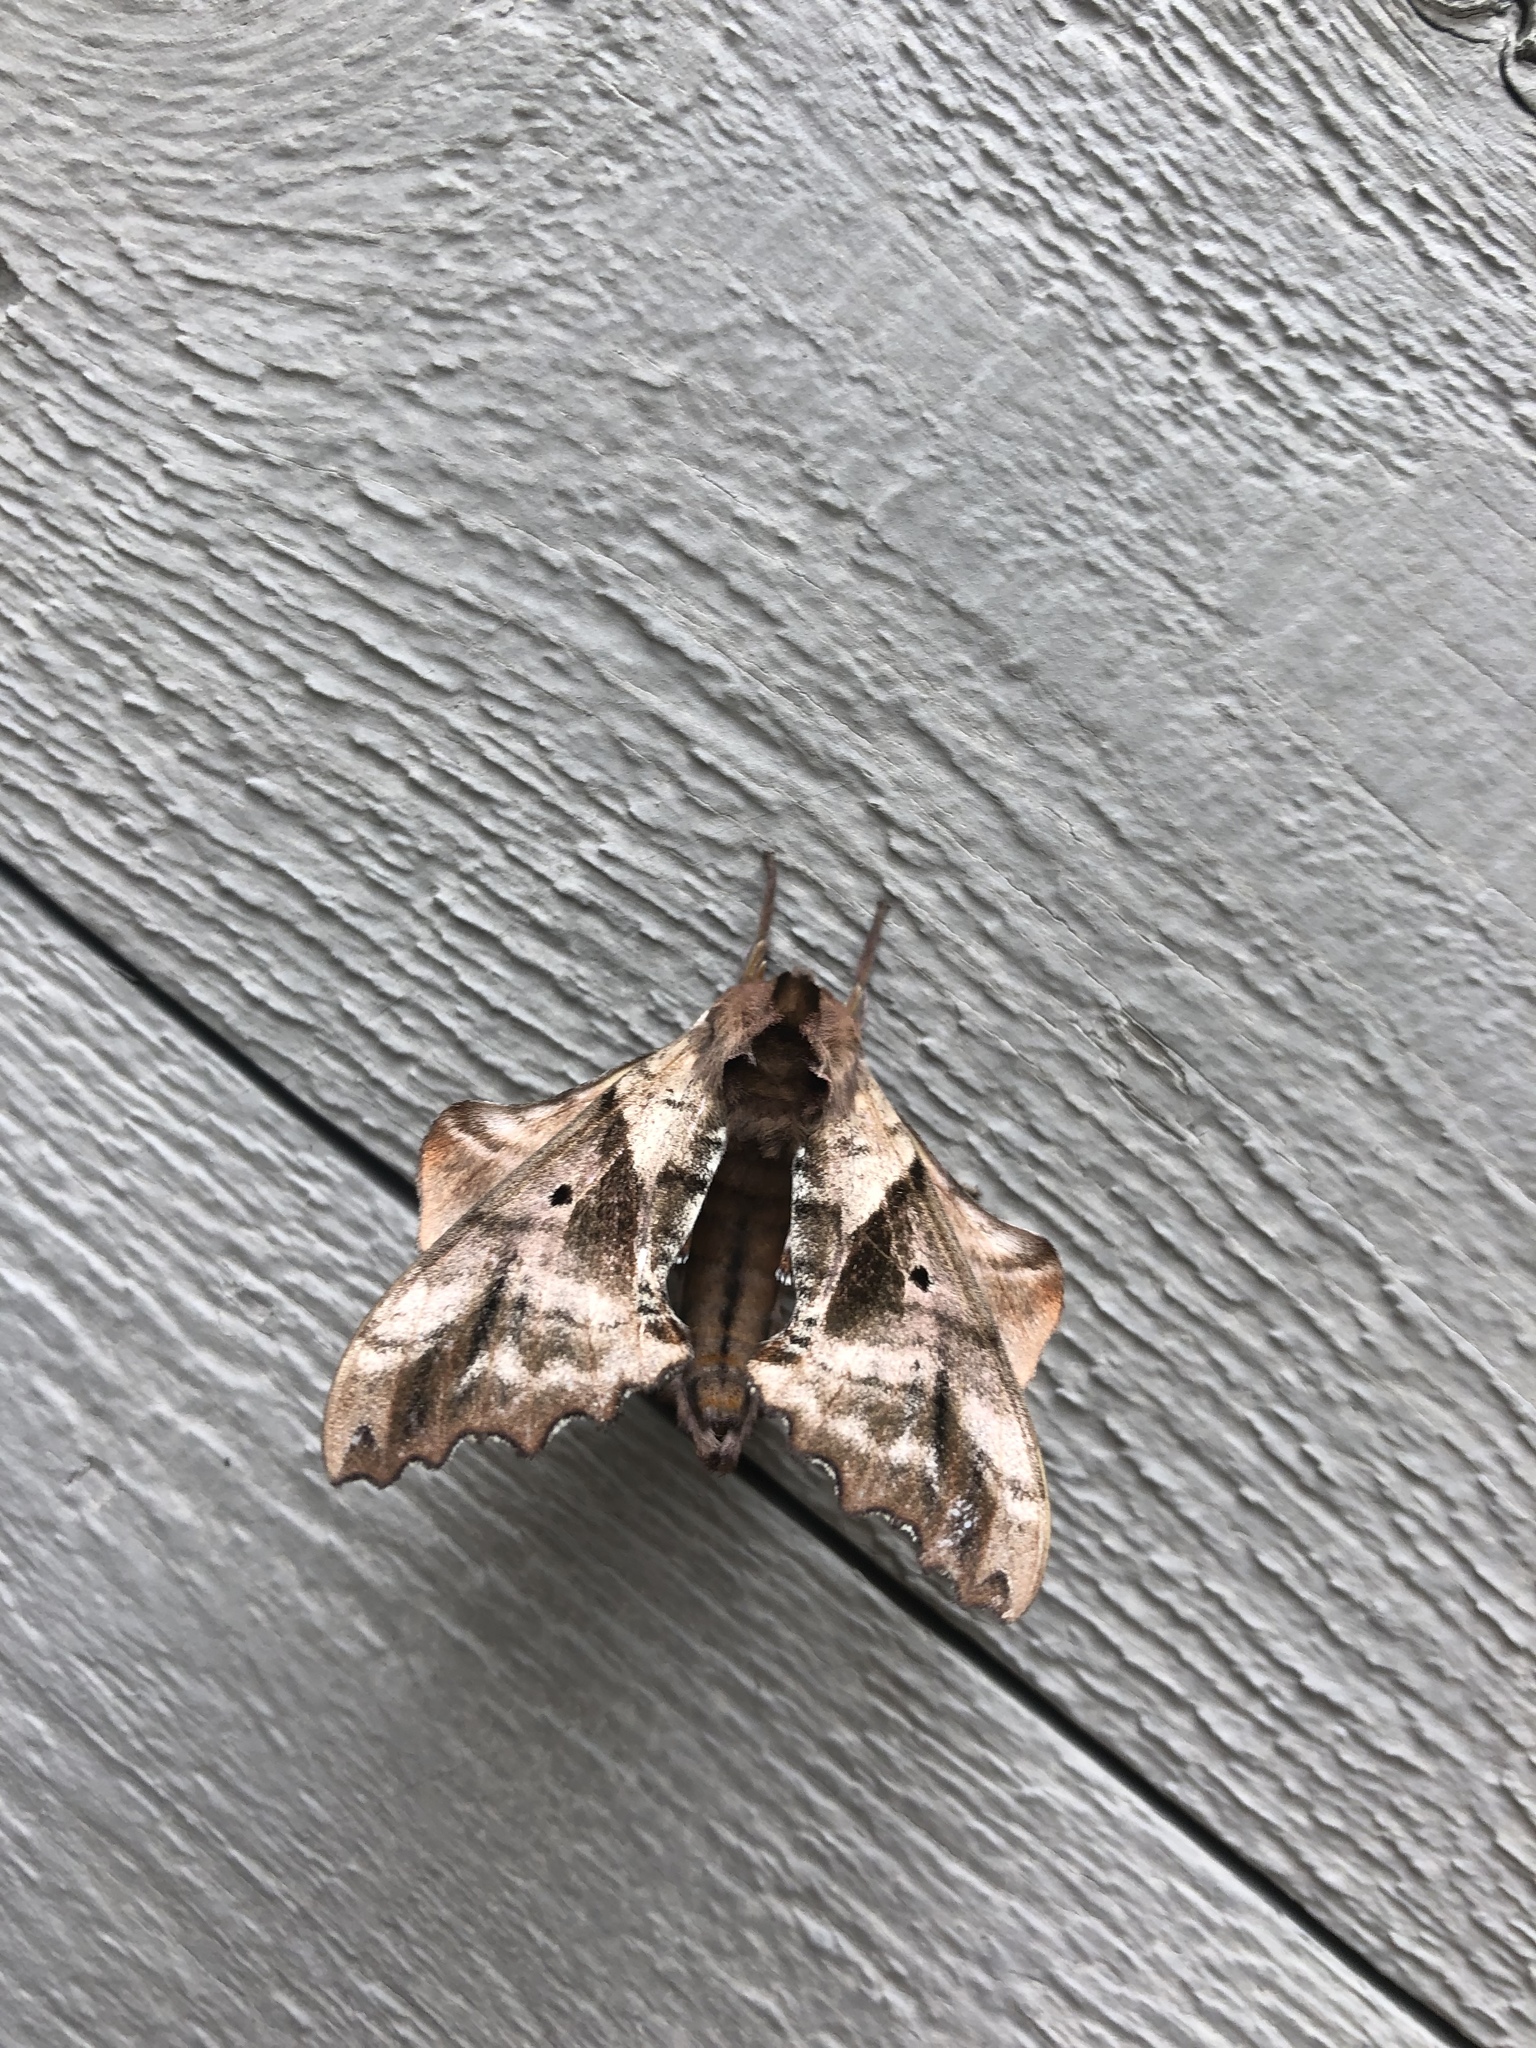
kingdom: Animalia
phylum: Arthropoda
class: Insecta
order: Lepidoptera
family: Sphingidae
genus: Paonias
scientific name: Paonias excaecata
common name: Blind-eyed sphinx
